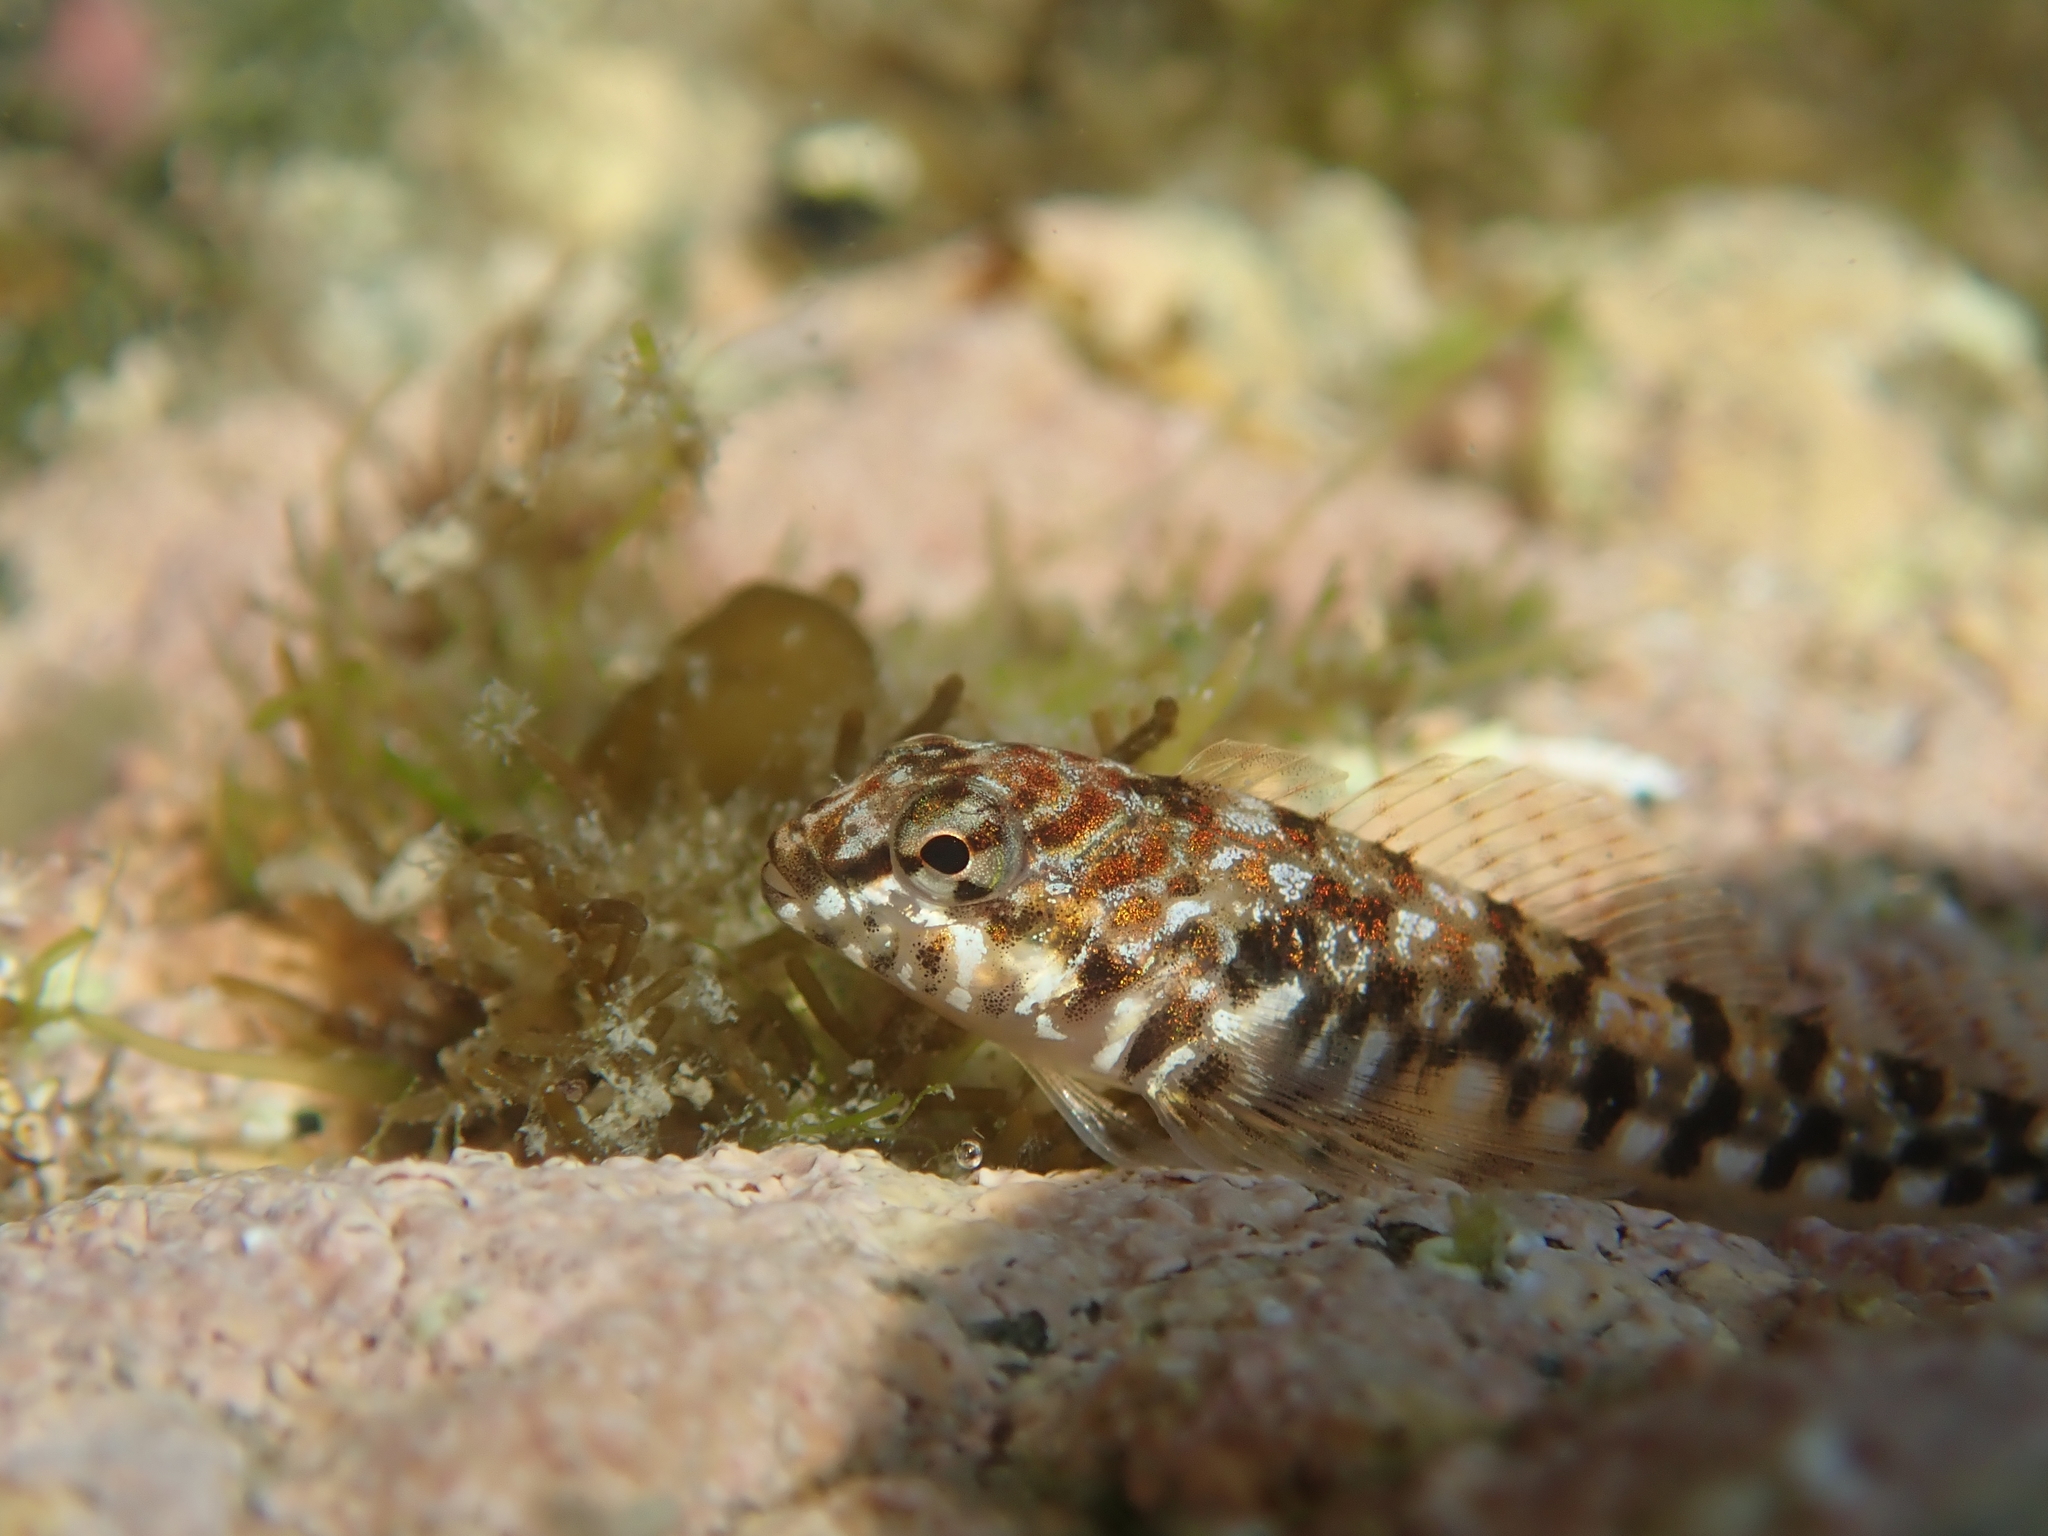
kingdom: Animalia
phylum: Chordata
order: Perciformes
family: Tripterygiidae
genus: Bellapiscis
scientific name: Bellapiscis lesleyae
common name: Mottled twister
